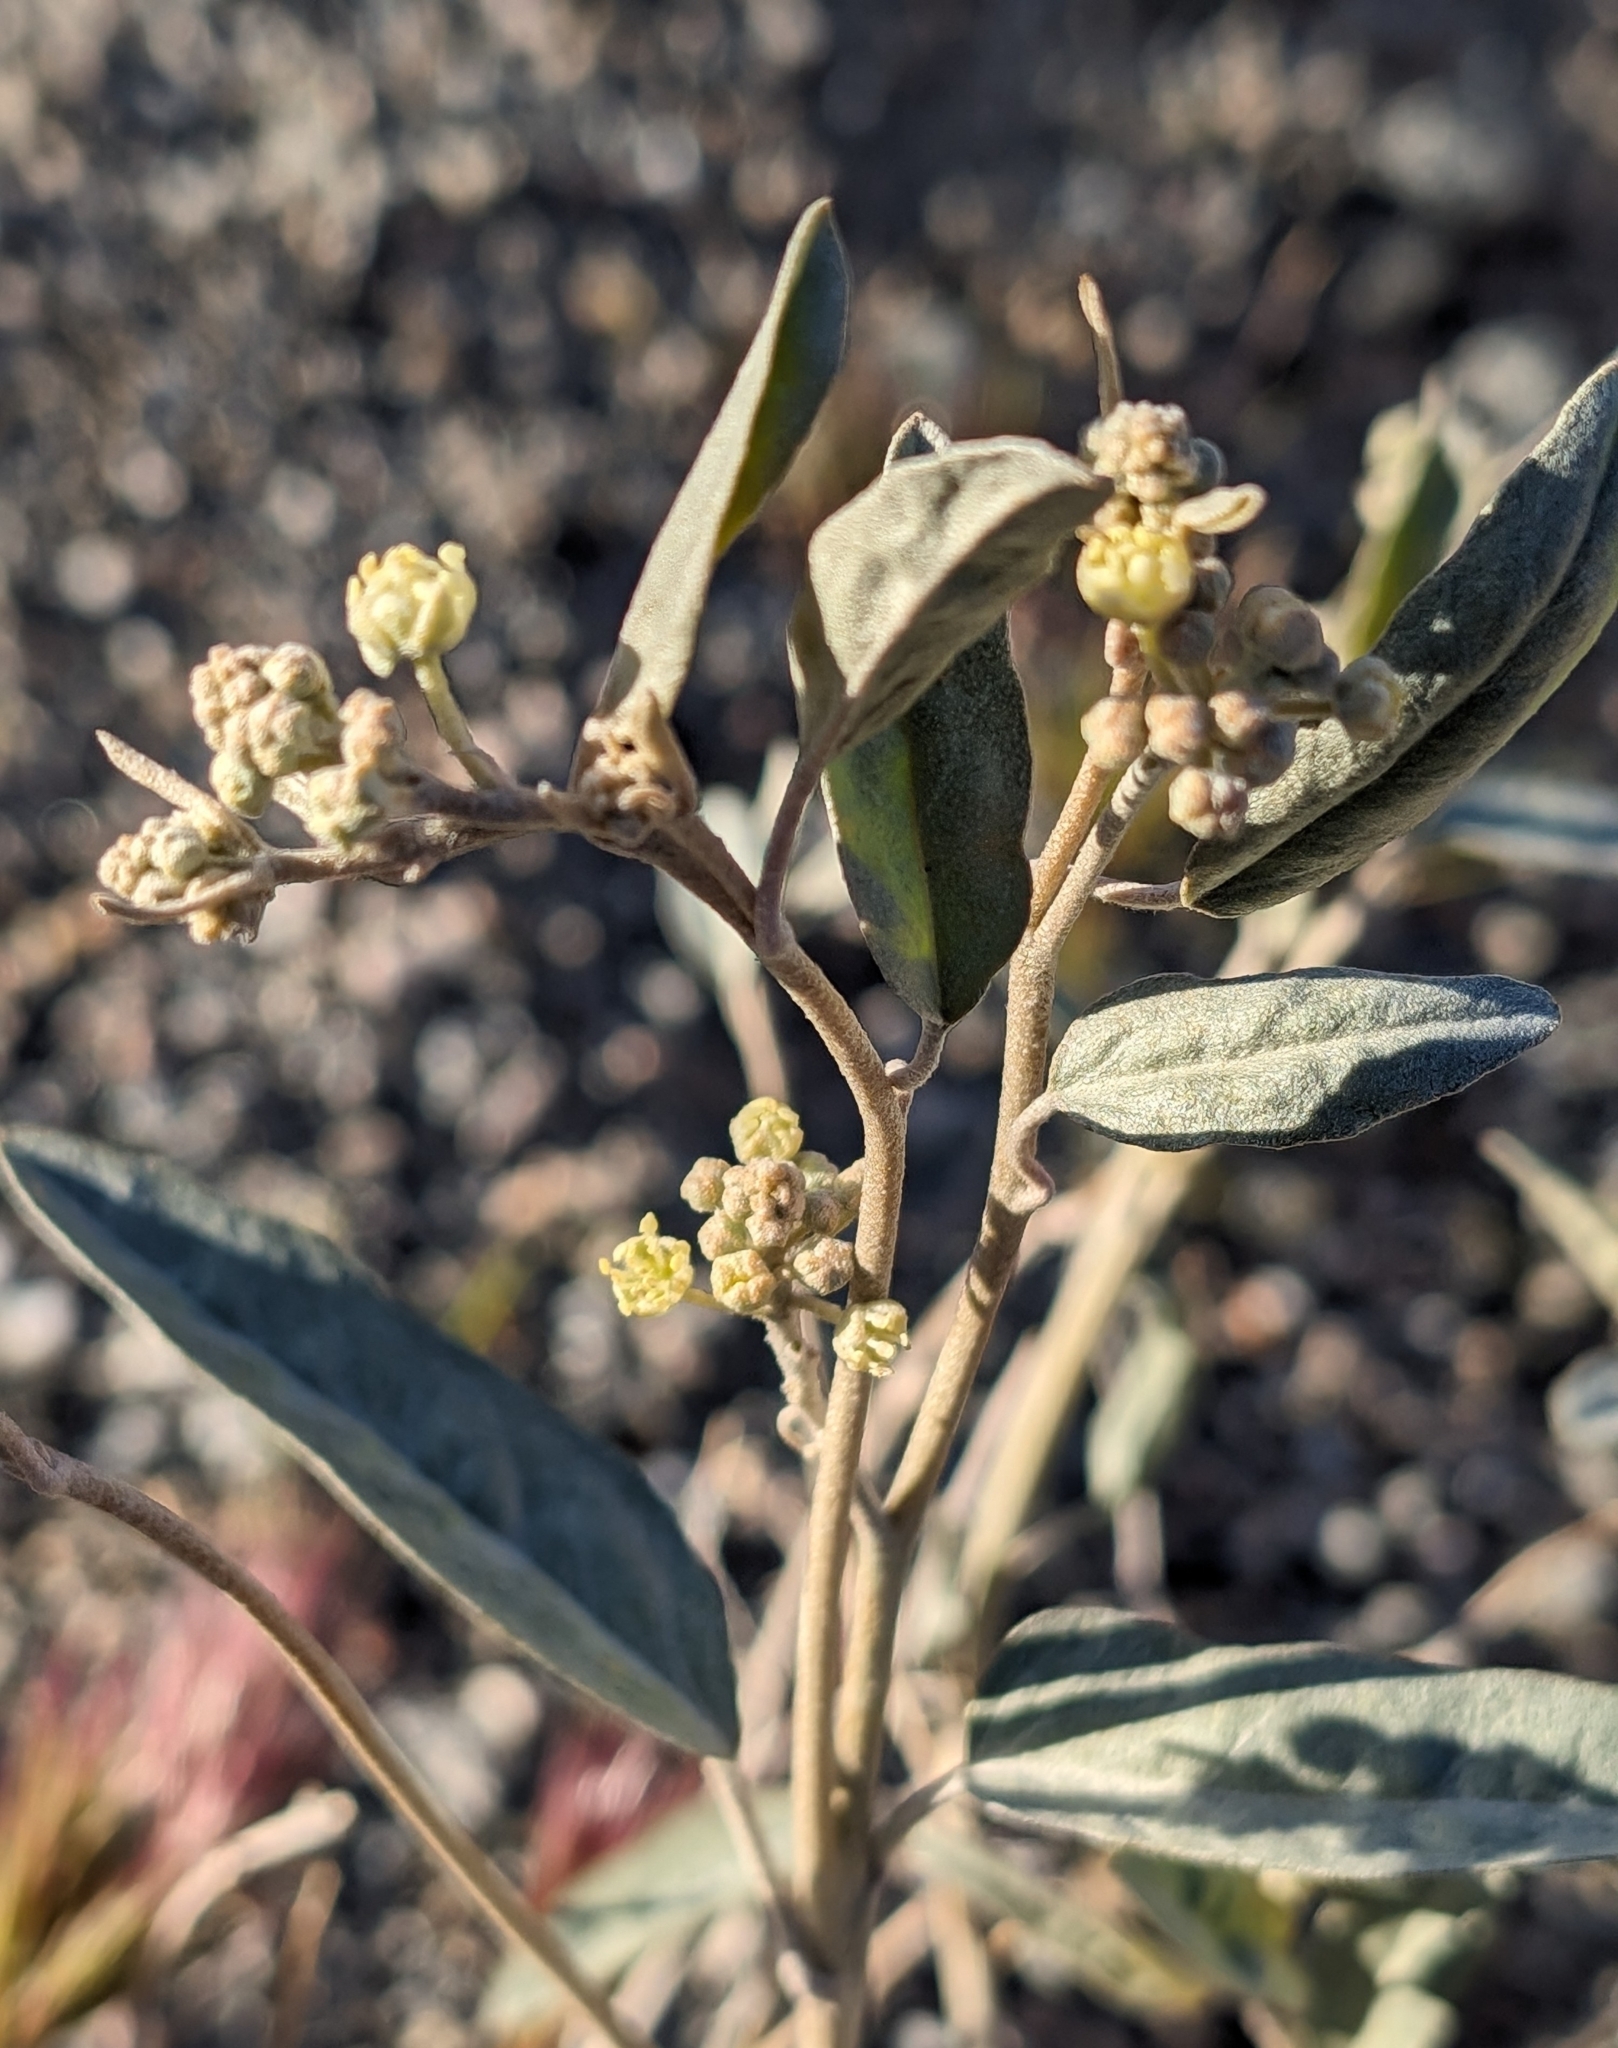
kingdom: Plantae
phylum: Tracheophyta
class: Magnoliopsida
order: Malpighiales
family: Euphorbiaceae
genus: Croton
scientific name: Croton californicus
